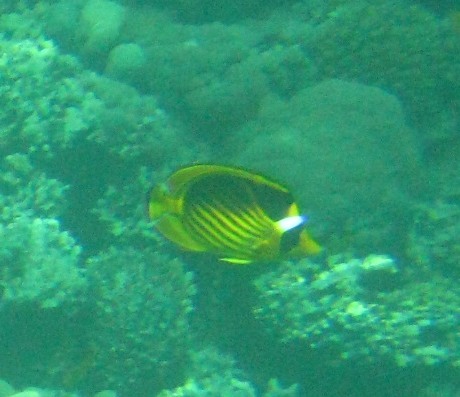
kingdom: Animalia
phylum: Chordata
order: Perciformes
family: Chaetodontidae
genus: Chaetodon
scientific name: Chaetodon fasciatus
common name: Diagonal butterflyfish
